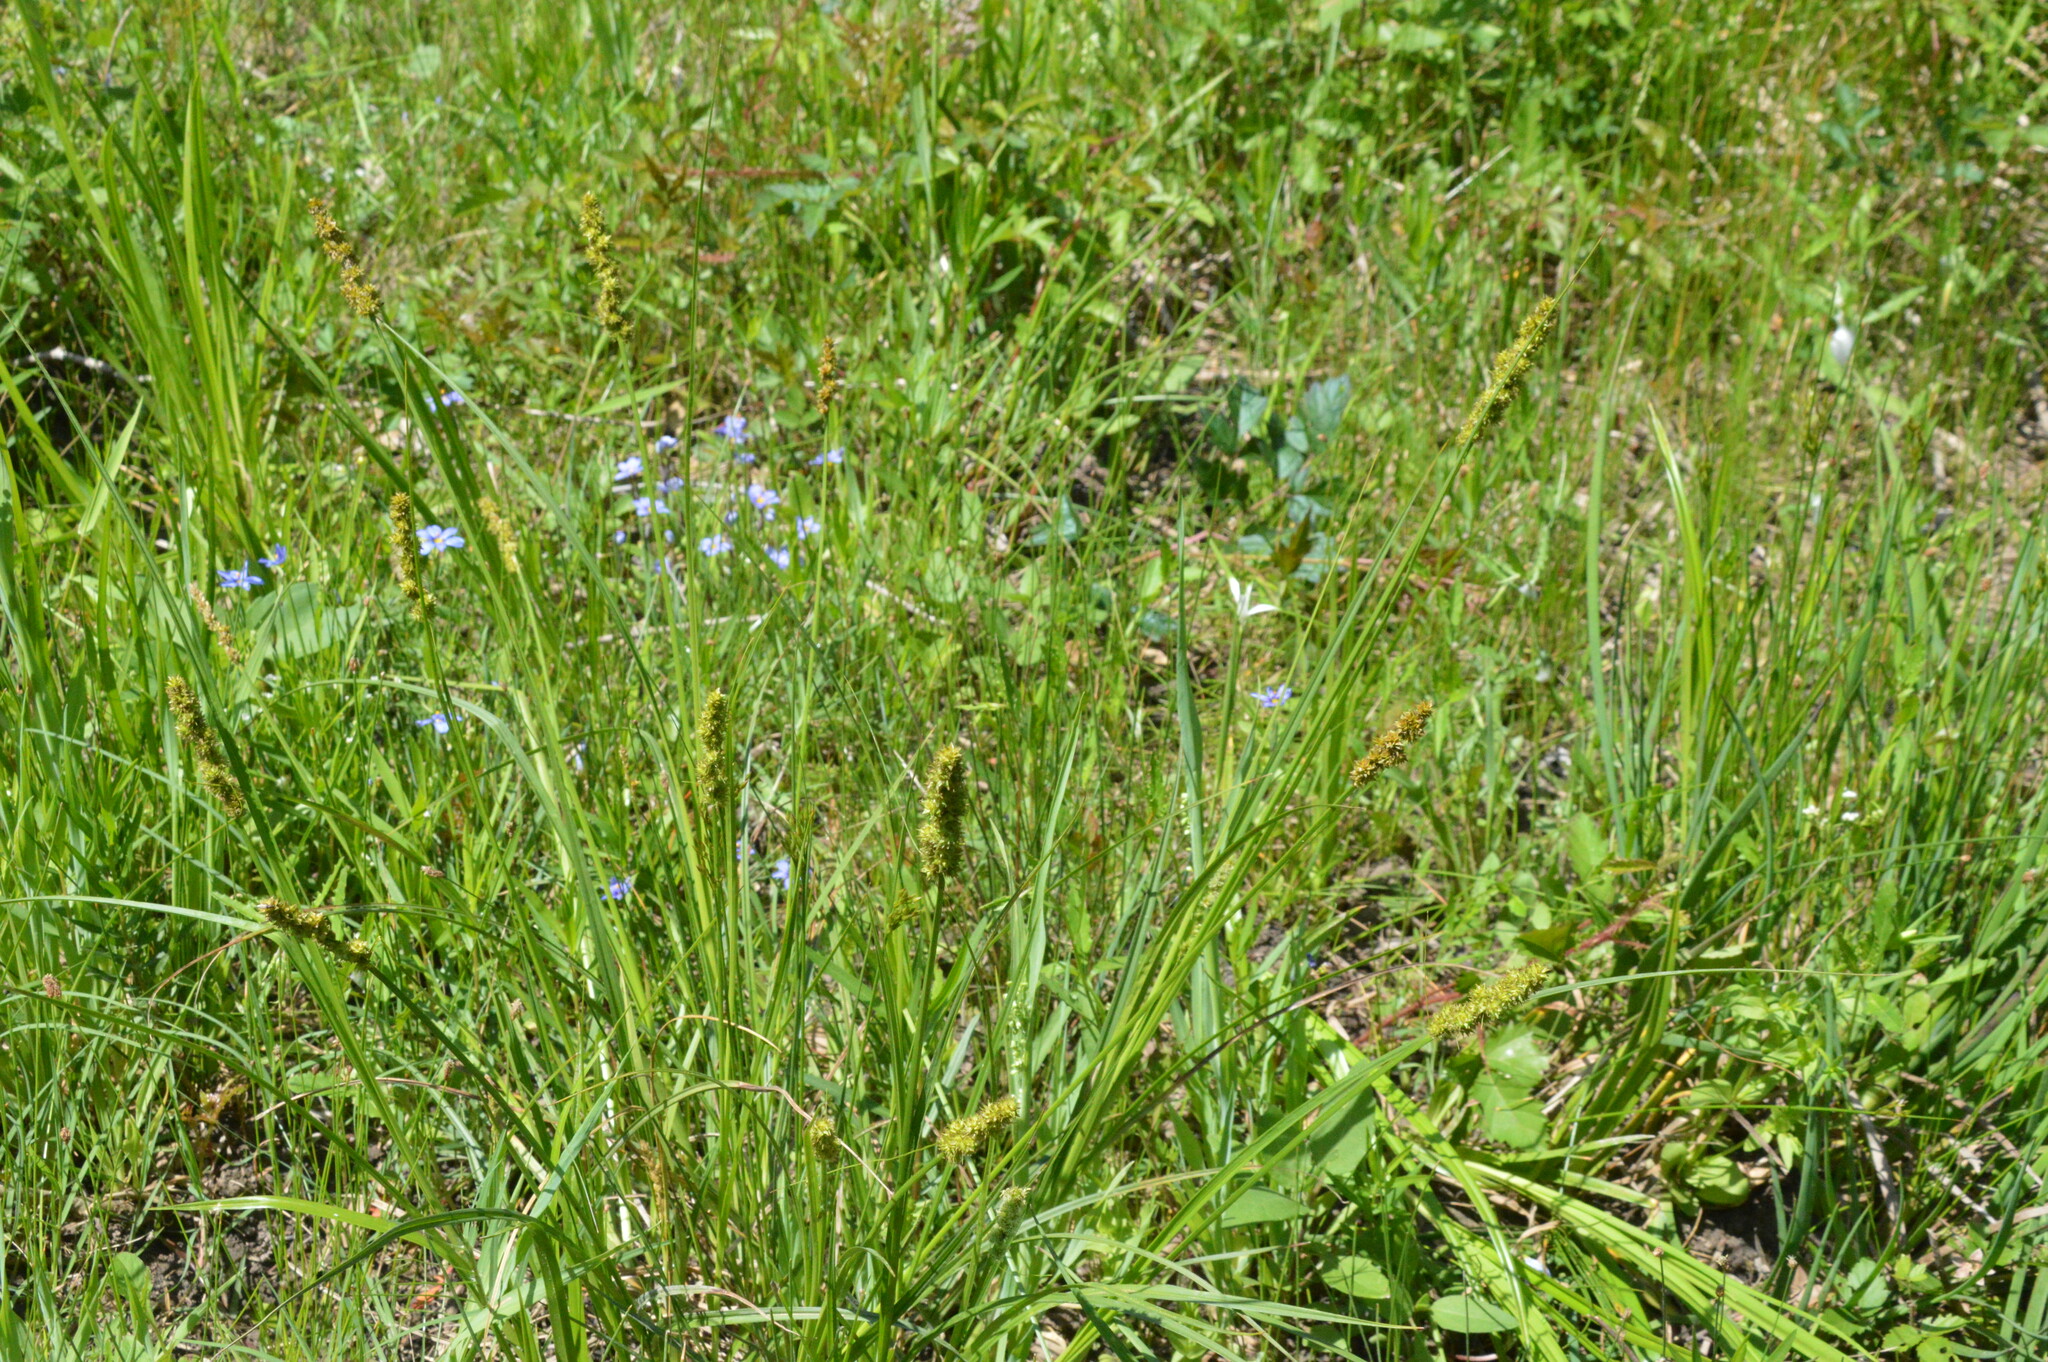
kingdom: Plantae
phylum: Tracheophyta
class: Liliopsida
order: Poales
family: Cyperaceae
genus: Carex
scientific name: Carex triangularis
